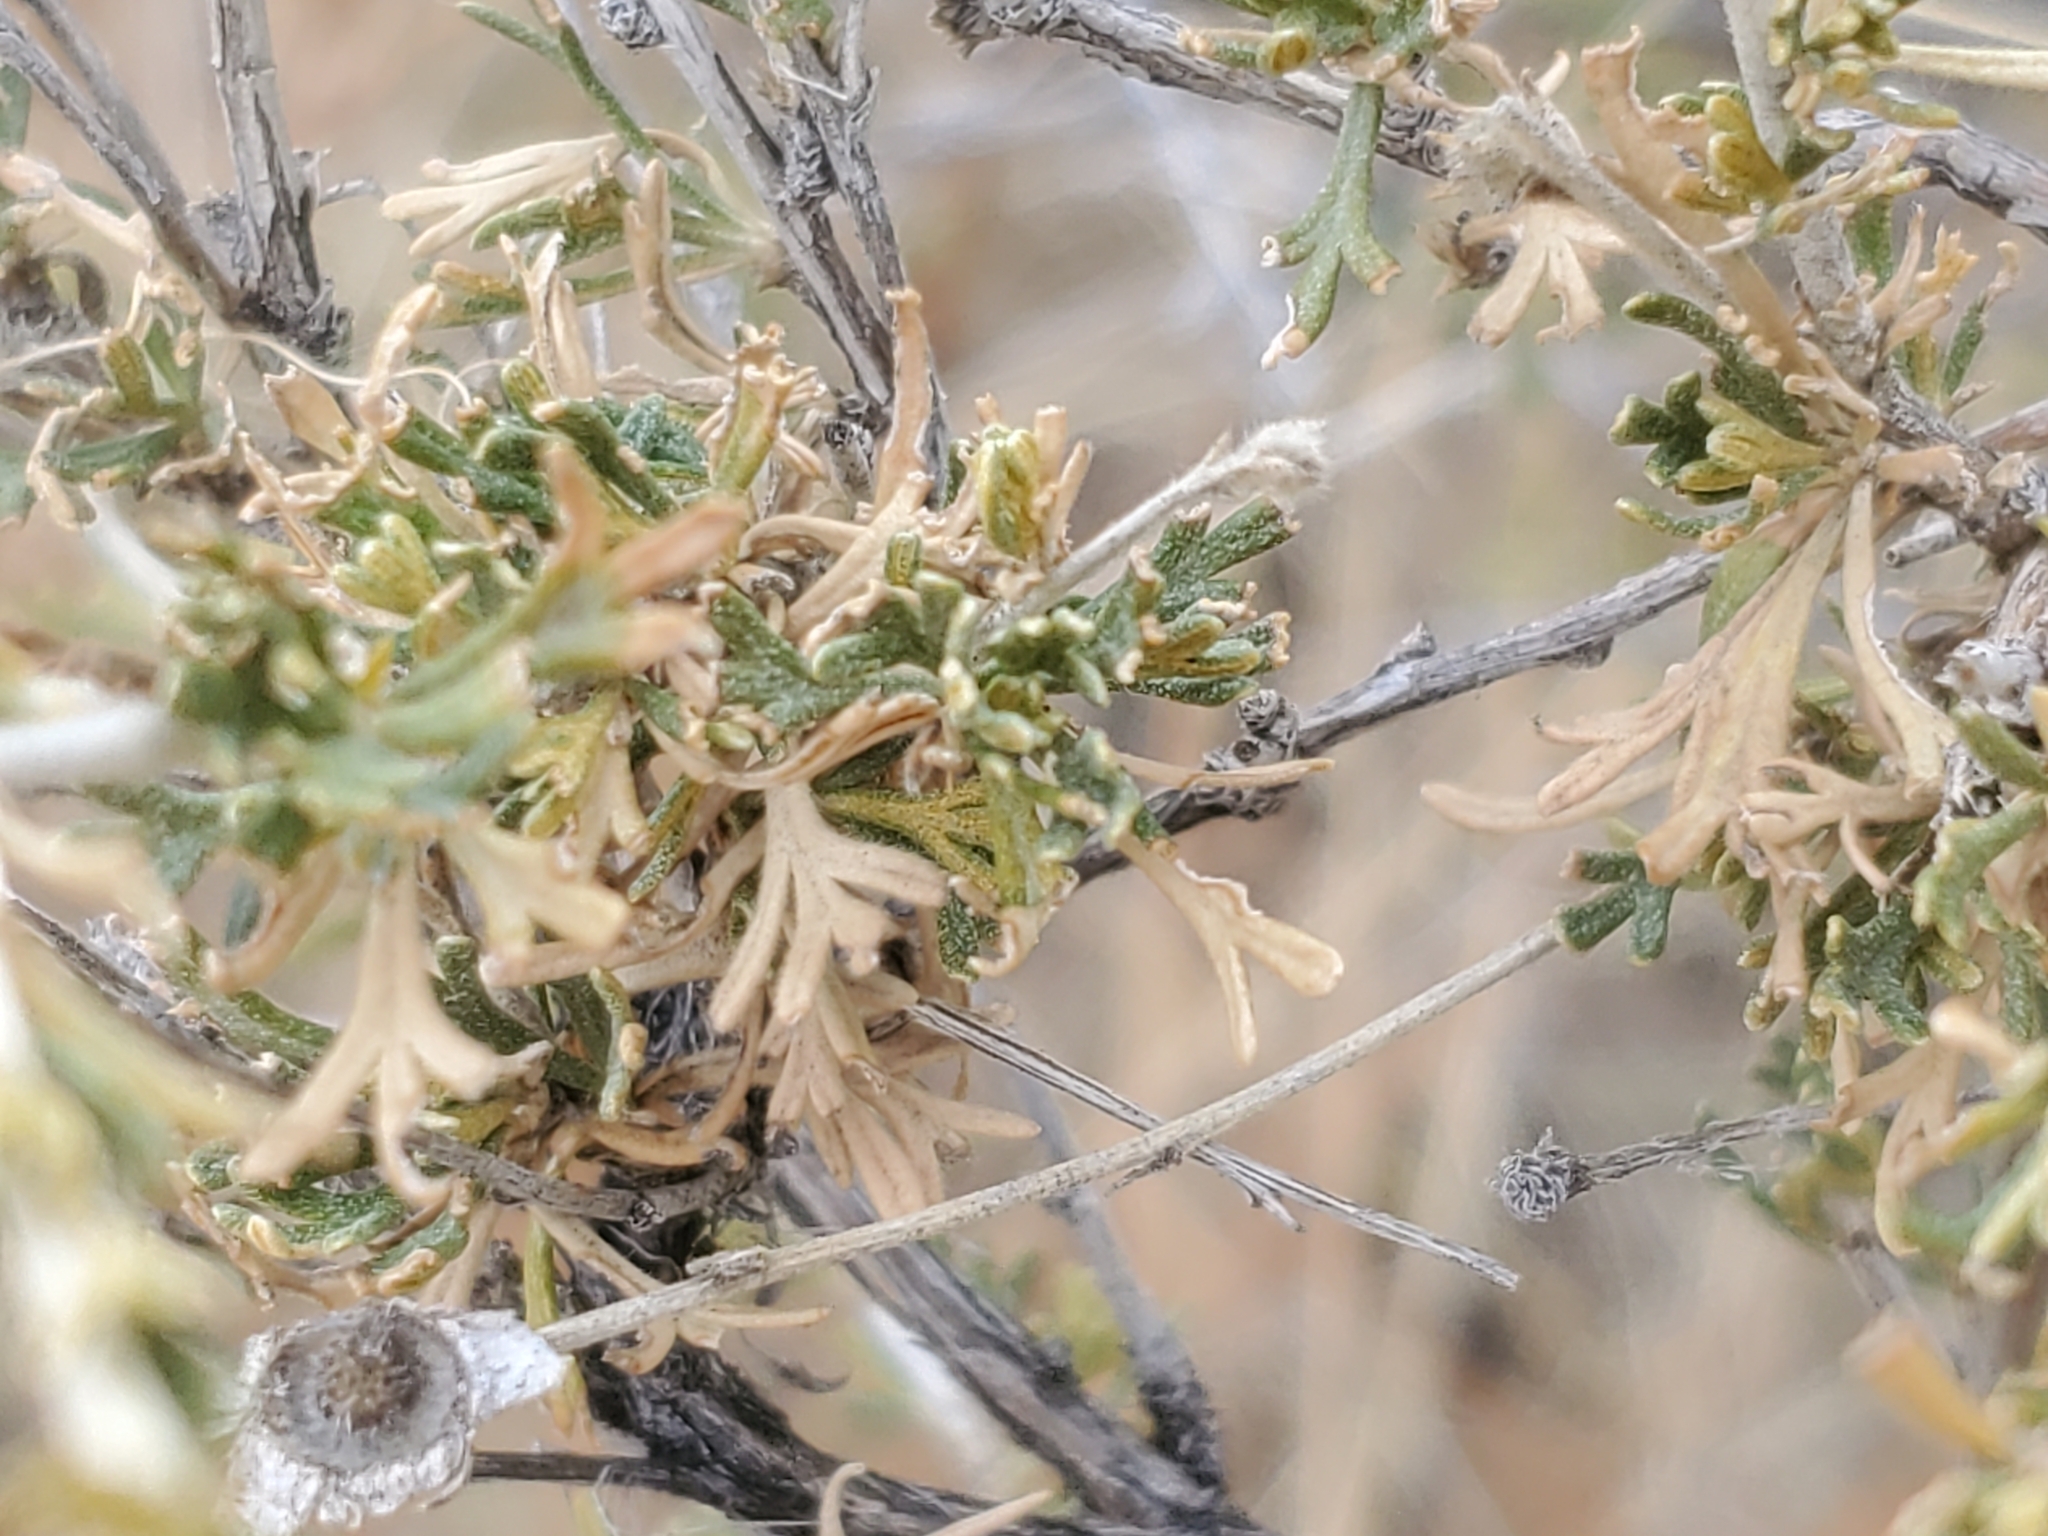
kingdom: Plantae
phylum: Tracheophyta
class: Magnoliopsida
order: Rosales
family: Rosaceae
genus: Fallugia
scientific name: Fallugia paradoxa
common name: Apache-plume
